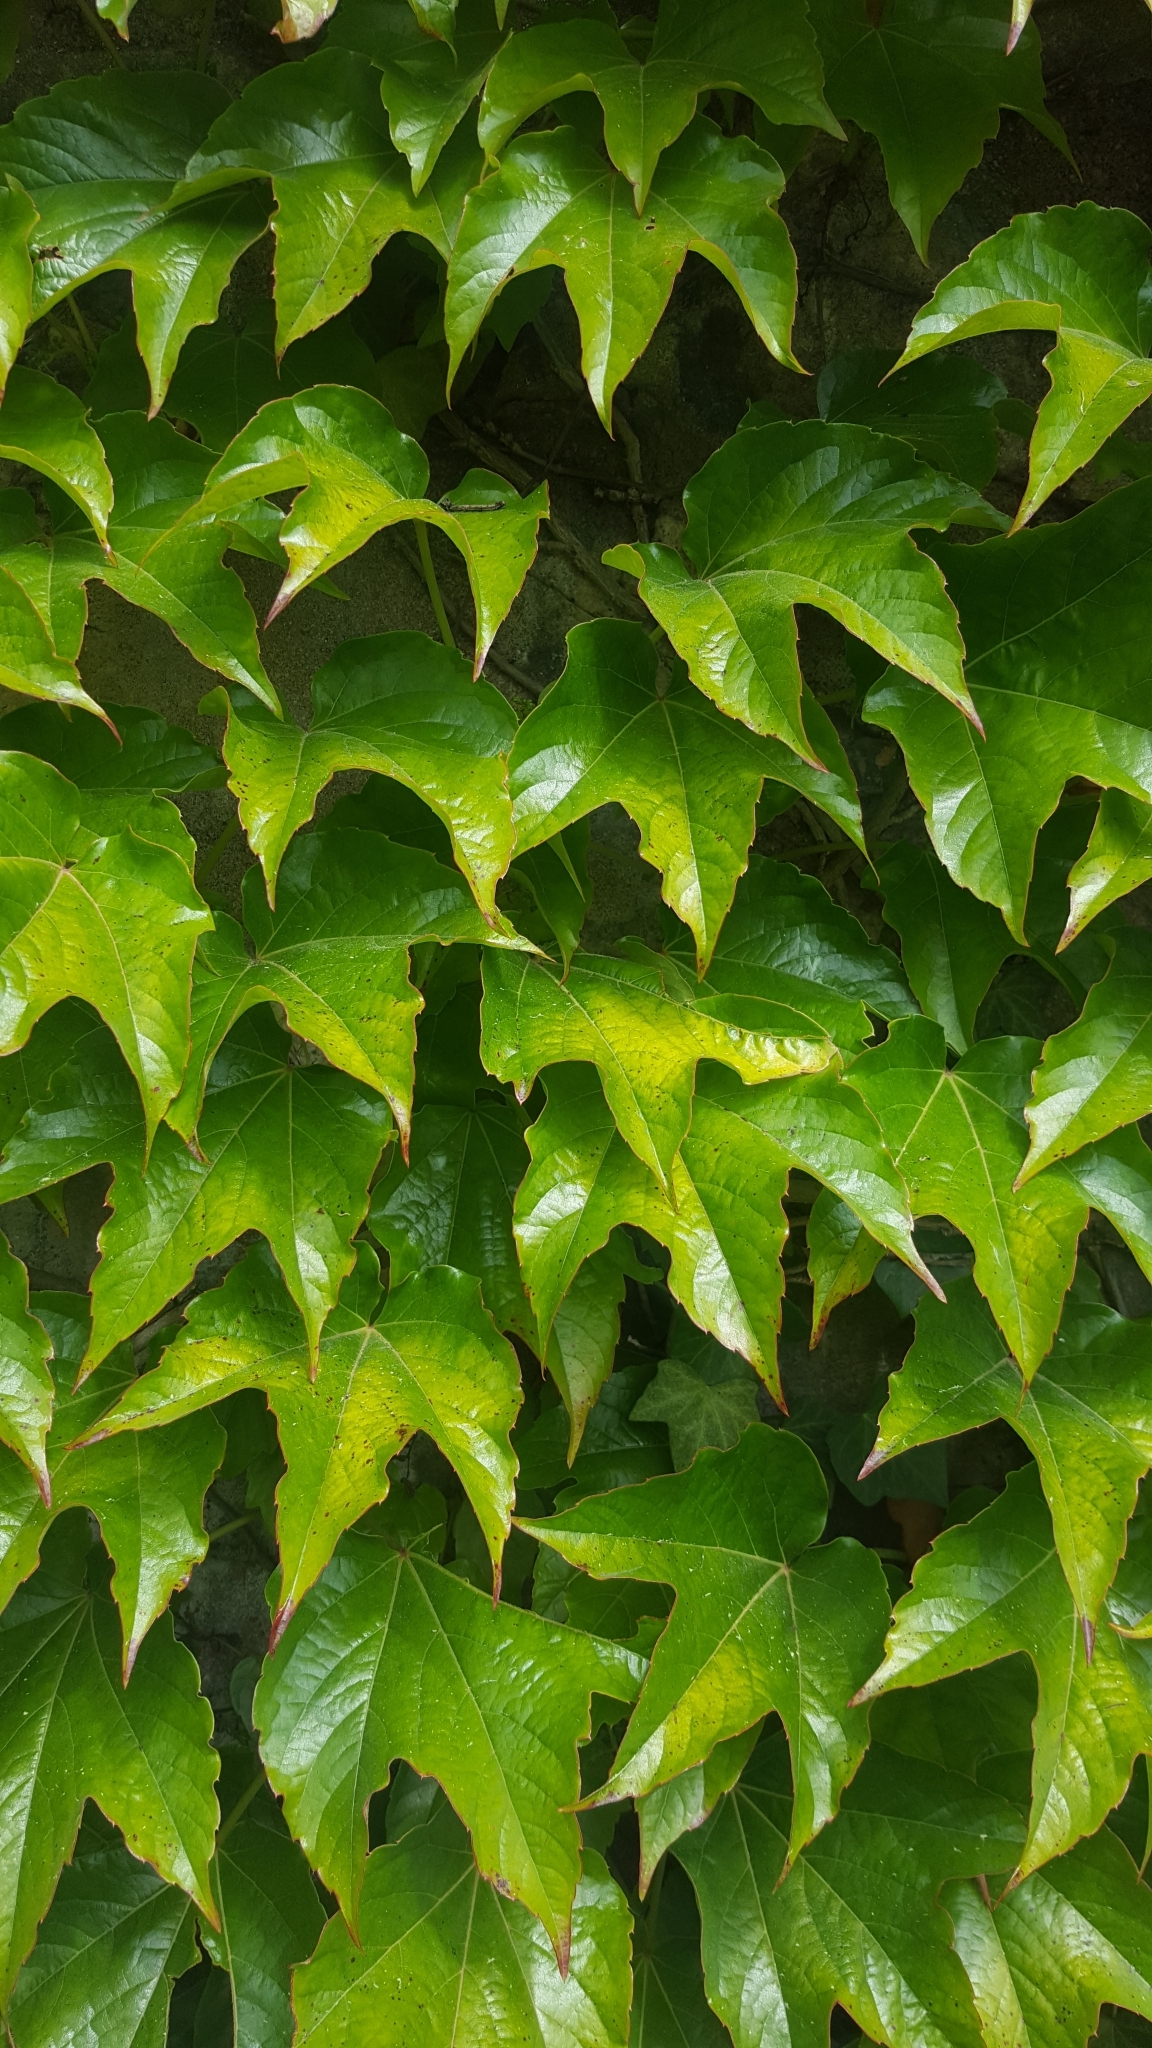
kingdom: Plantae
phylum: Tracheophyta
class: Magnoliopsida
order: Vitales
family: Vitaceae
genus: Parthenocissus
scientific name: Parthenocissus tricuspidata
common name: Boston ivy
